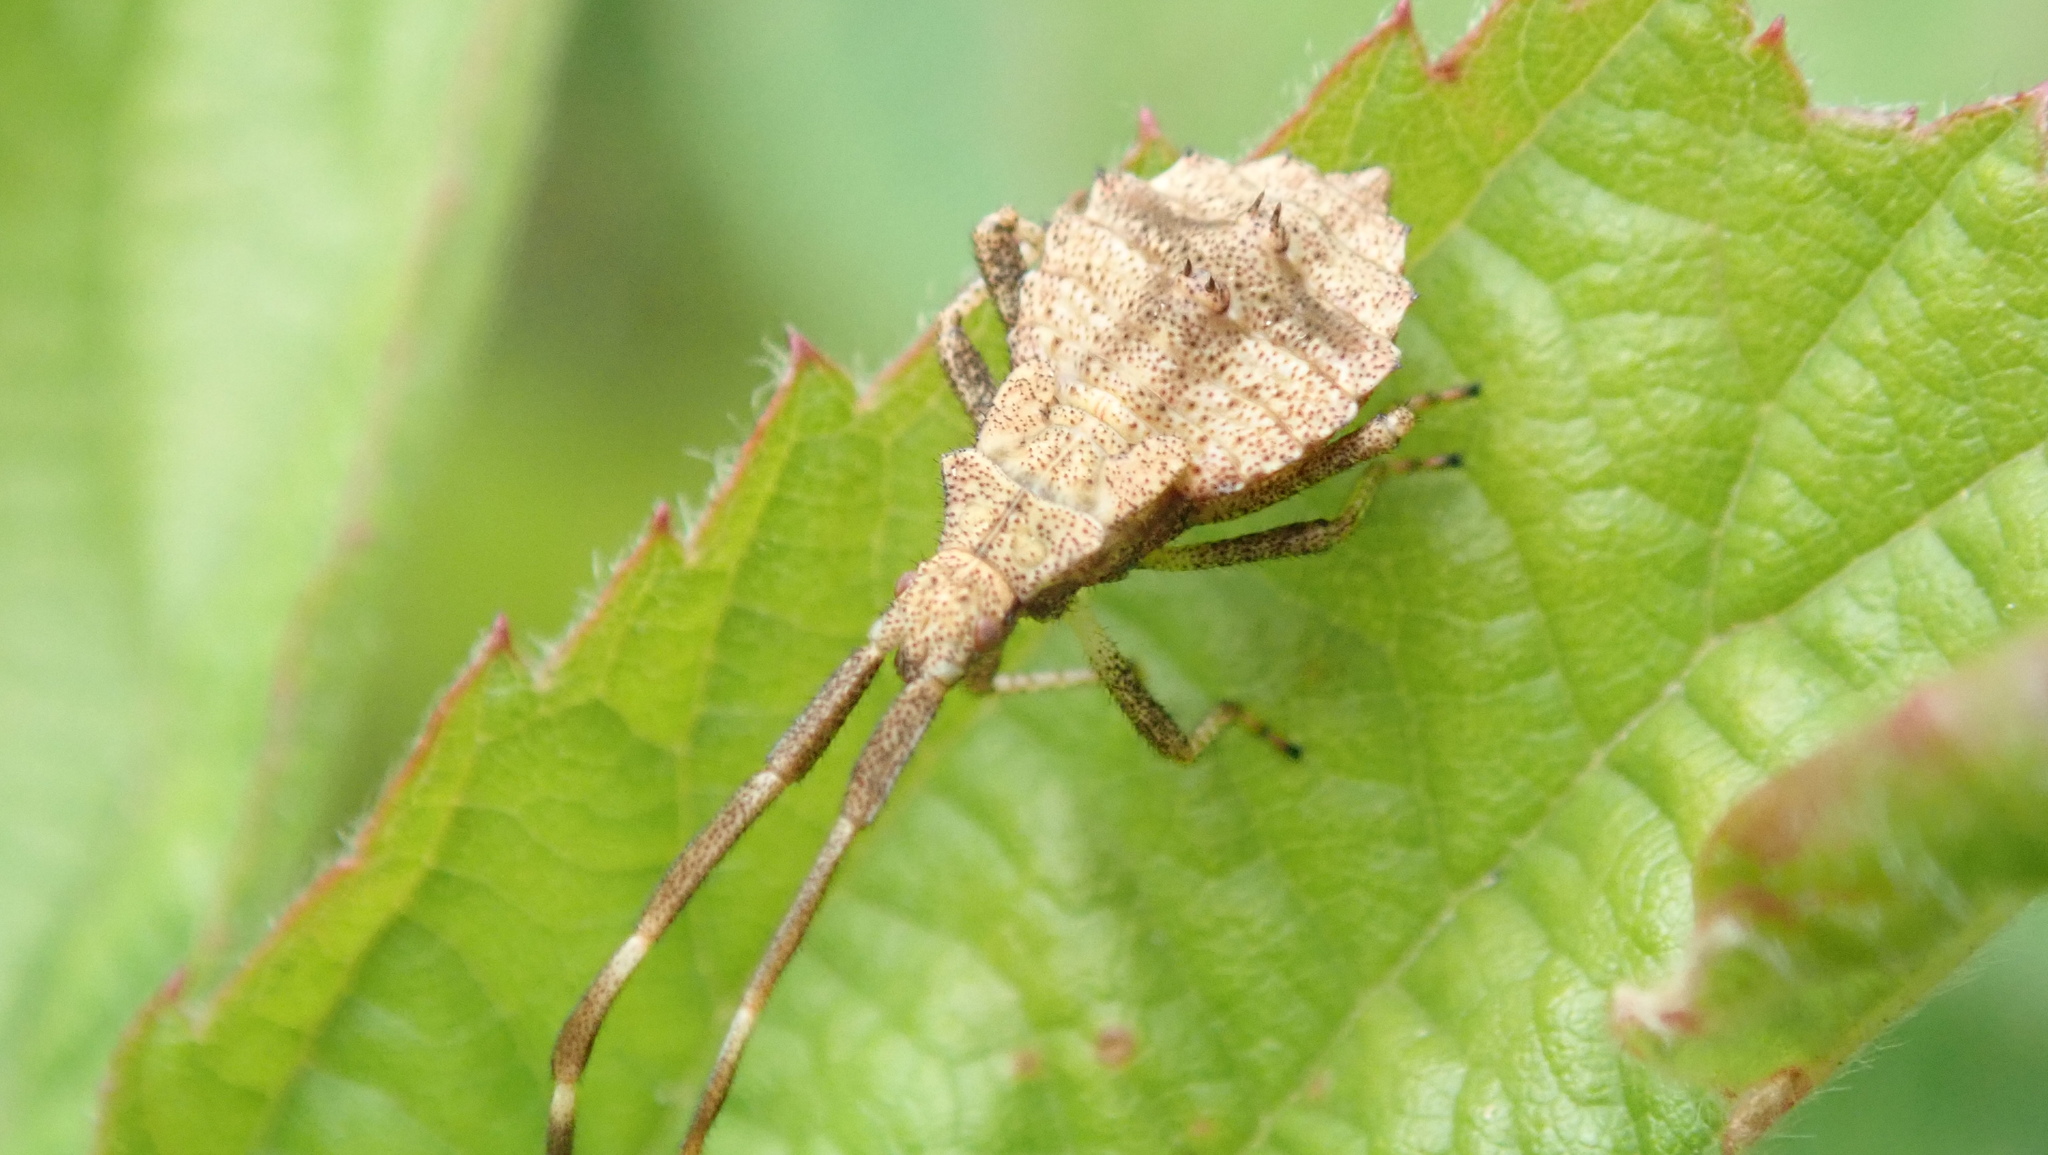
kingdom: Animalia
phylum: Arthropoda
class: Insecta
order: Hemiptera
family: Coreidae
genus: Coreus
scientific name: Coreus marginatus
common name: Dock bug
